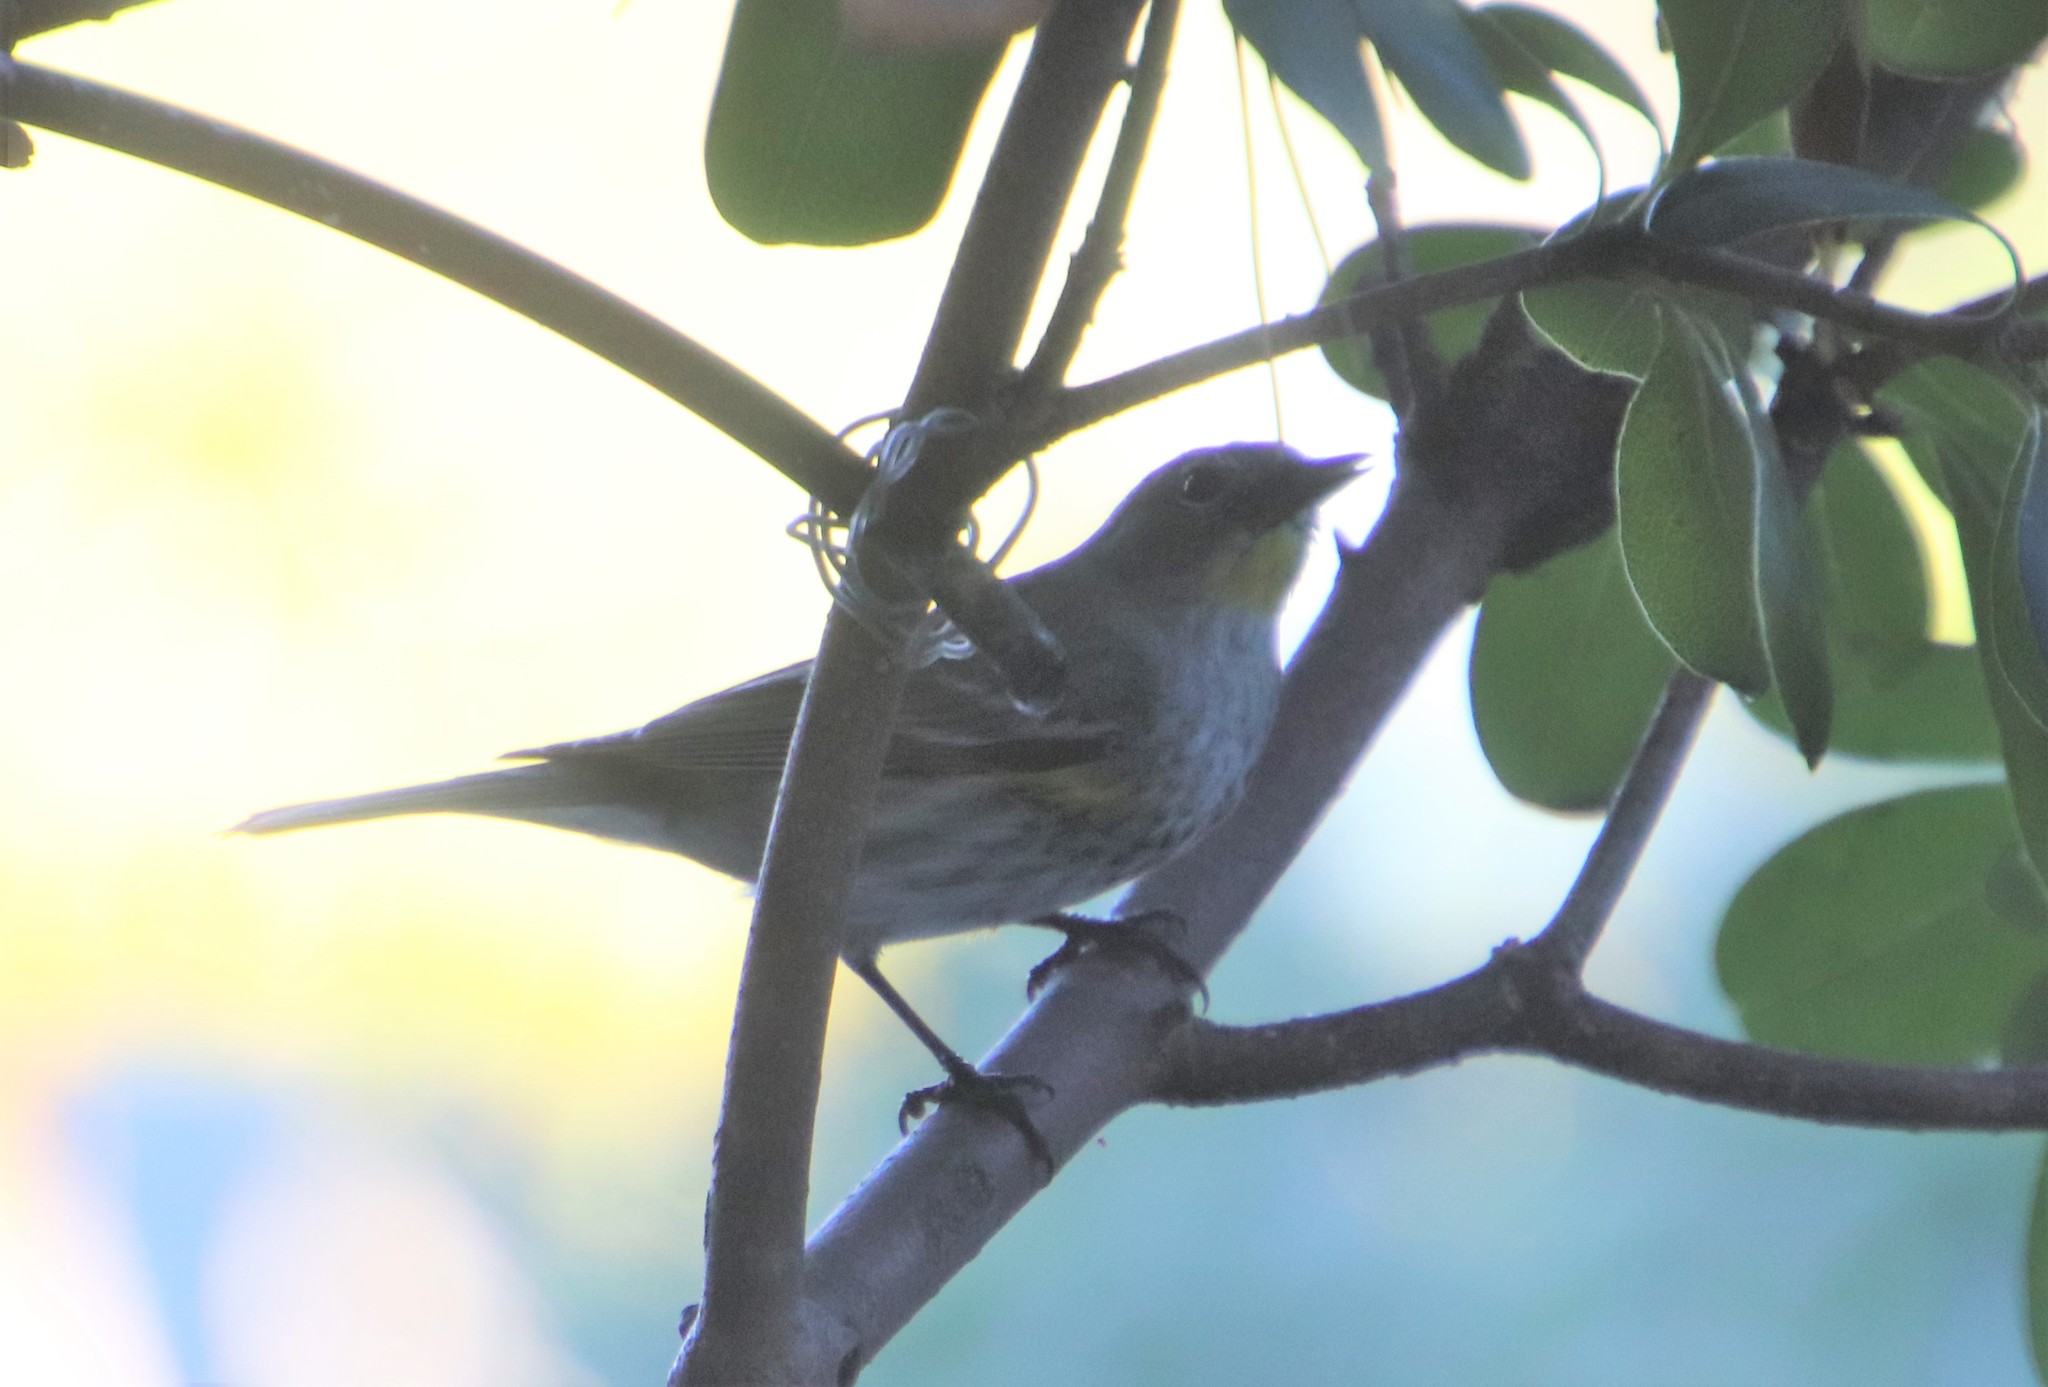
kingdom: Animalia
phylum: Chordata
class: Aves
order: Passeriformes
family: Parulidae
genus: Setophaga
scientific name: Setophaga auduboni
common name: Audubon's warbler
